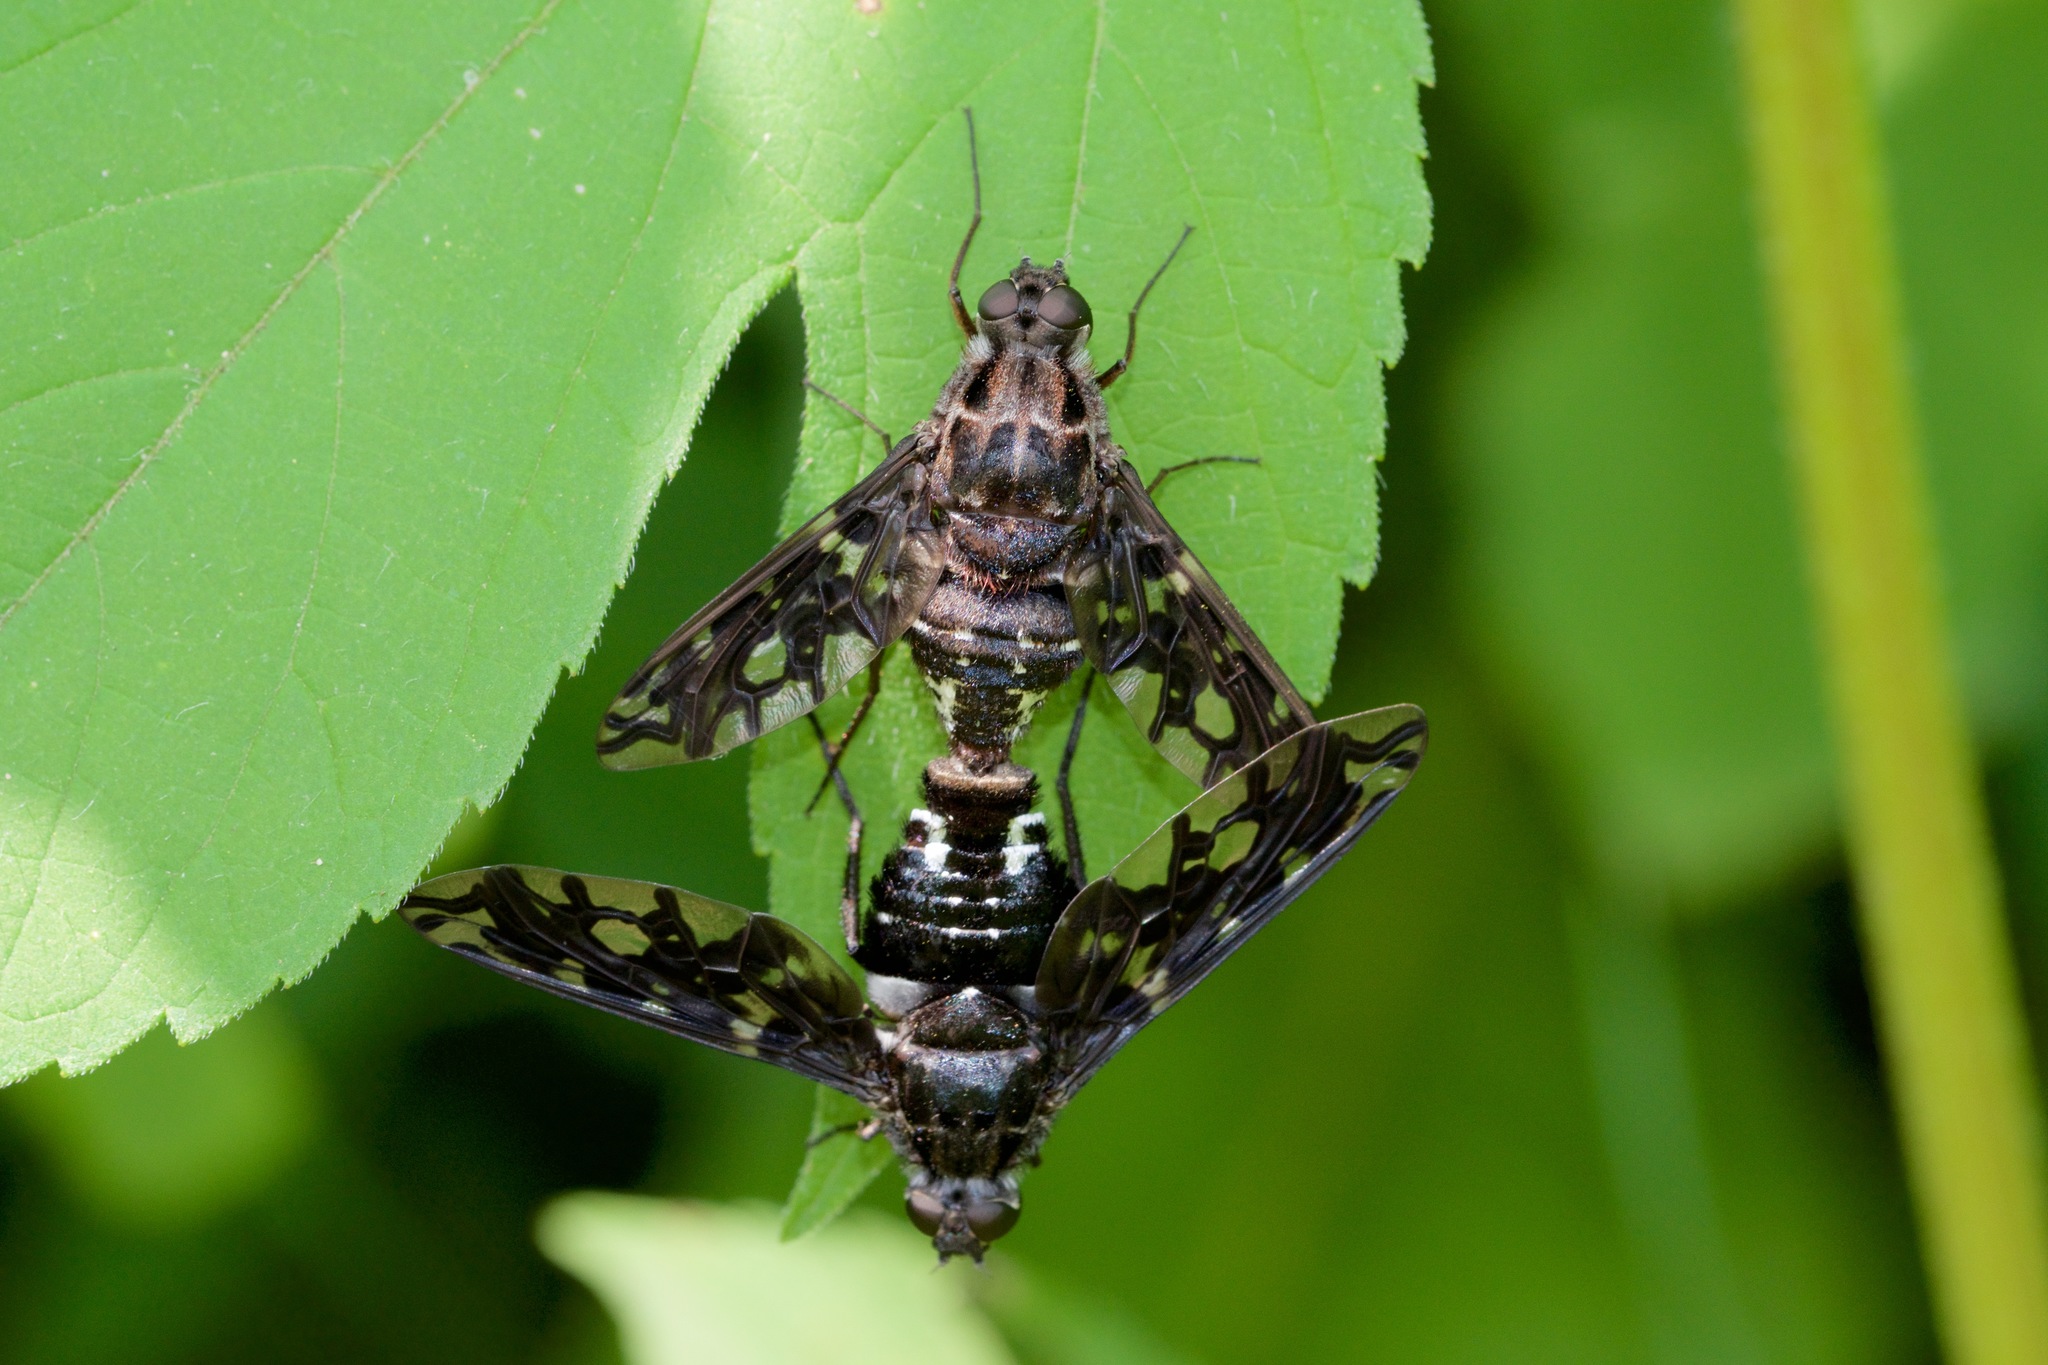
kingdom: Animalia
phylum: Arthropoda
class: Insecta
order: Diptera
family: Bombyliidae
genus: Xenox
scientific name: Xenox tigrinus
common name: Tiger bee fly
